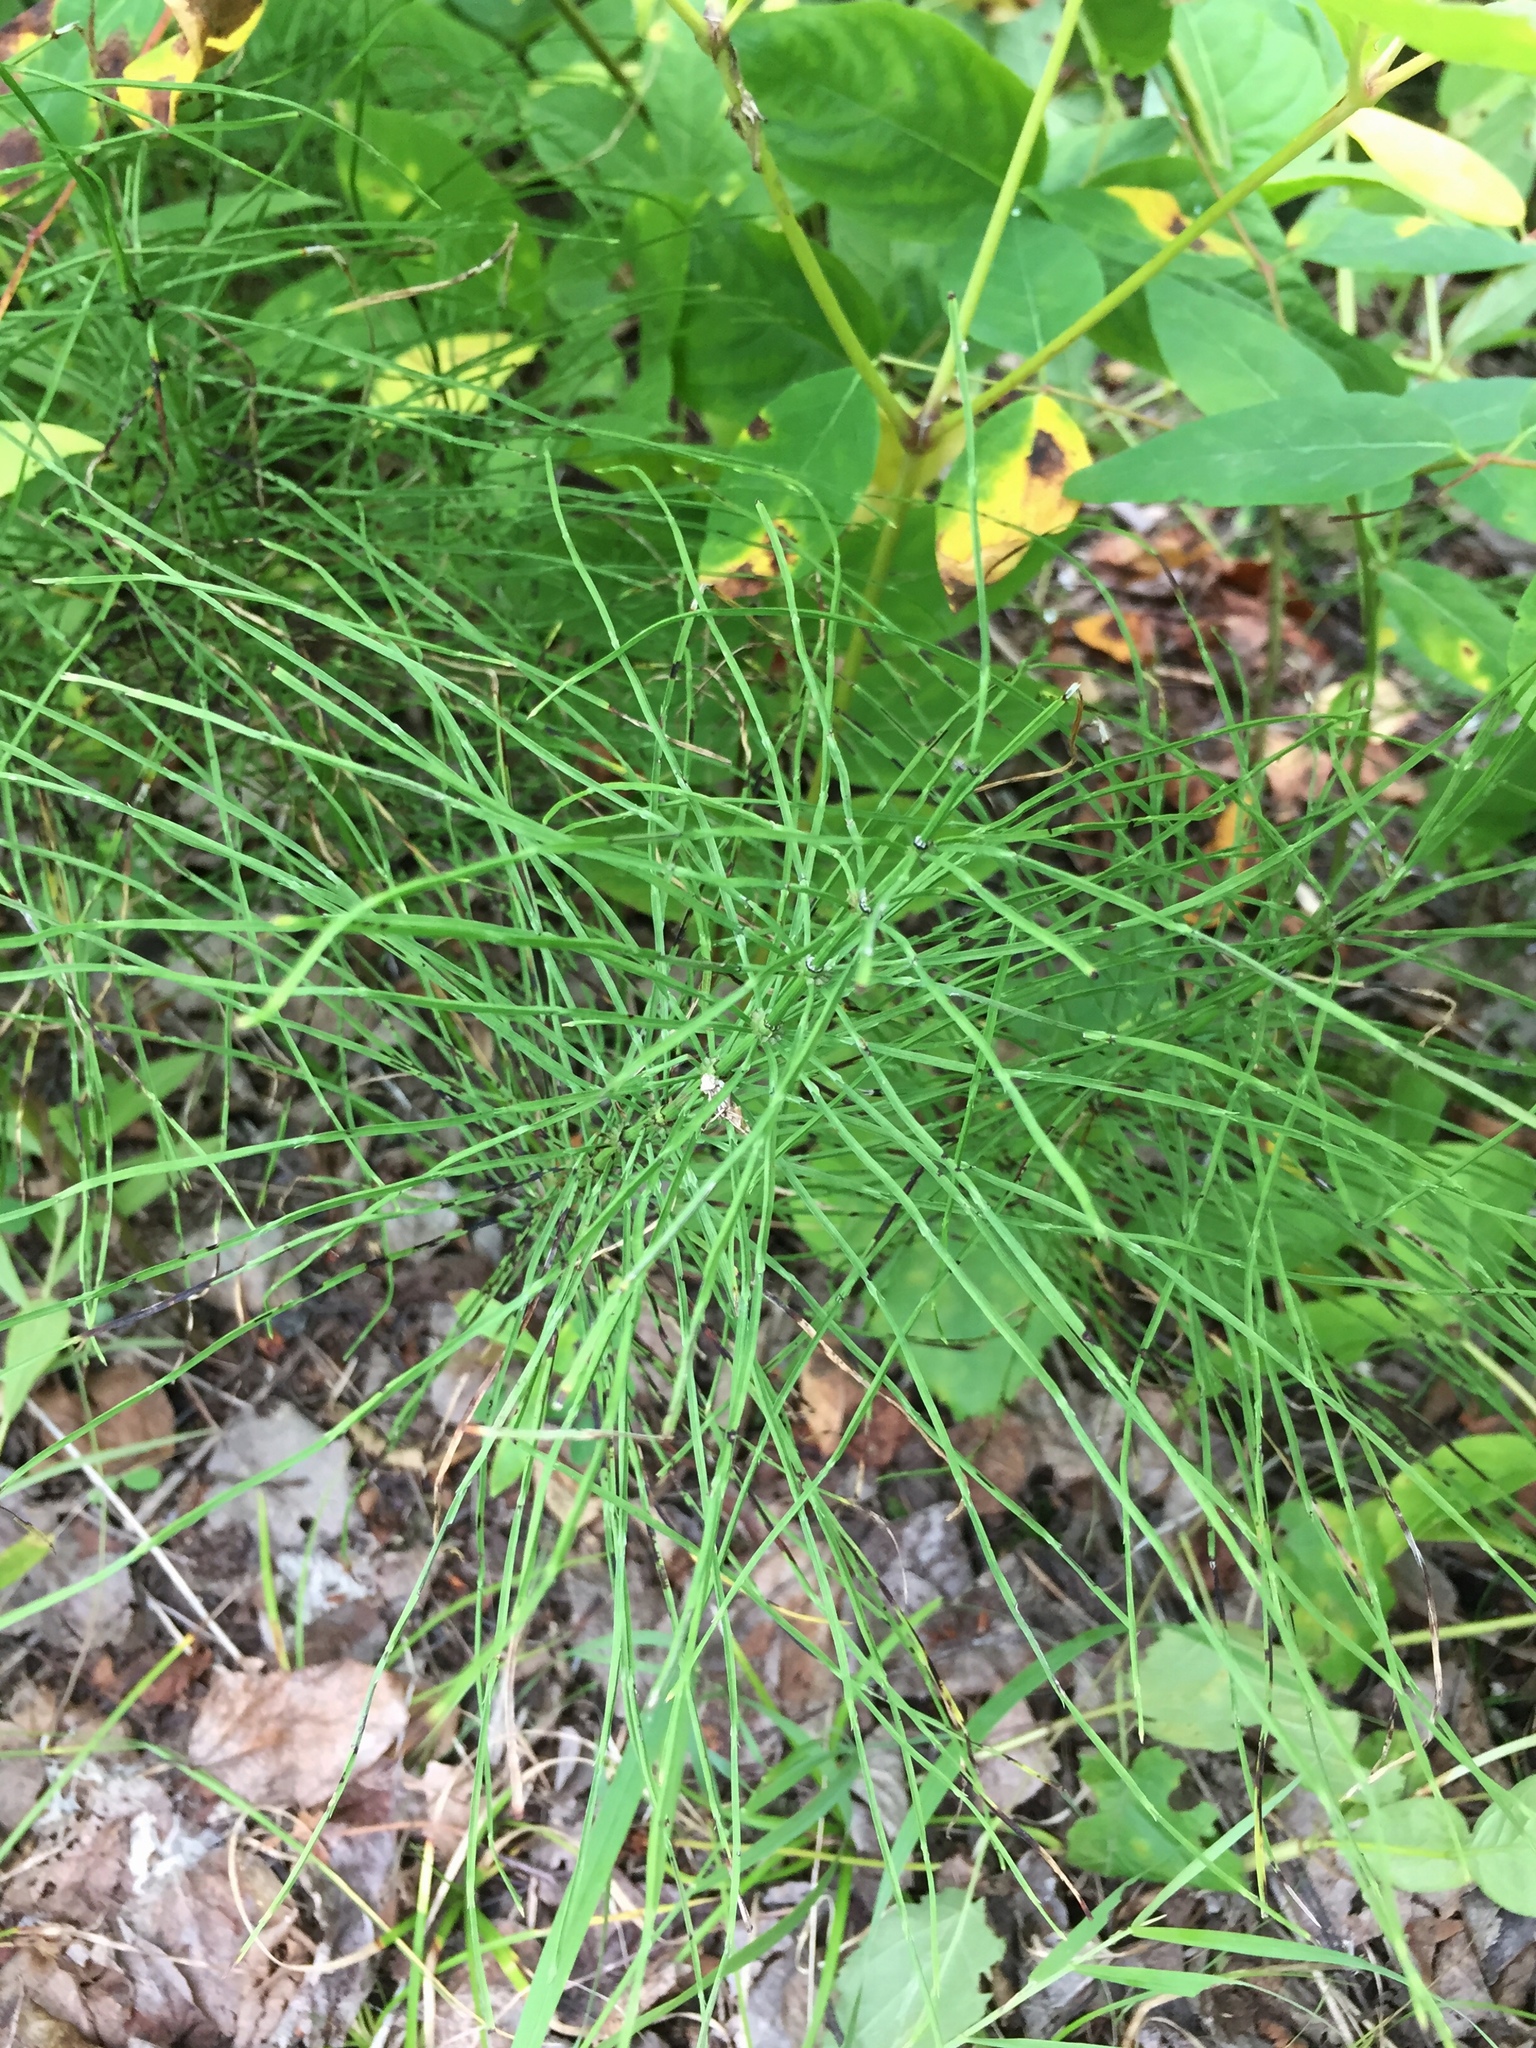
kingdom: Plantae
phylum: Tracheophyta
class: Polypodiopsida
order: Equisetales
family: Equisetaceae
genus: Equisetum
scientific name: Equisetum arvense
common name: Field horsetail
